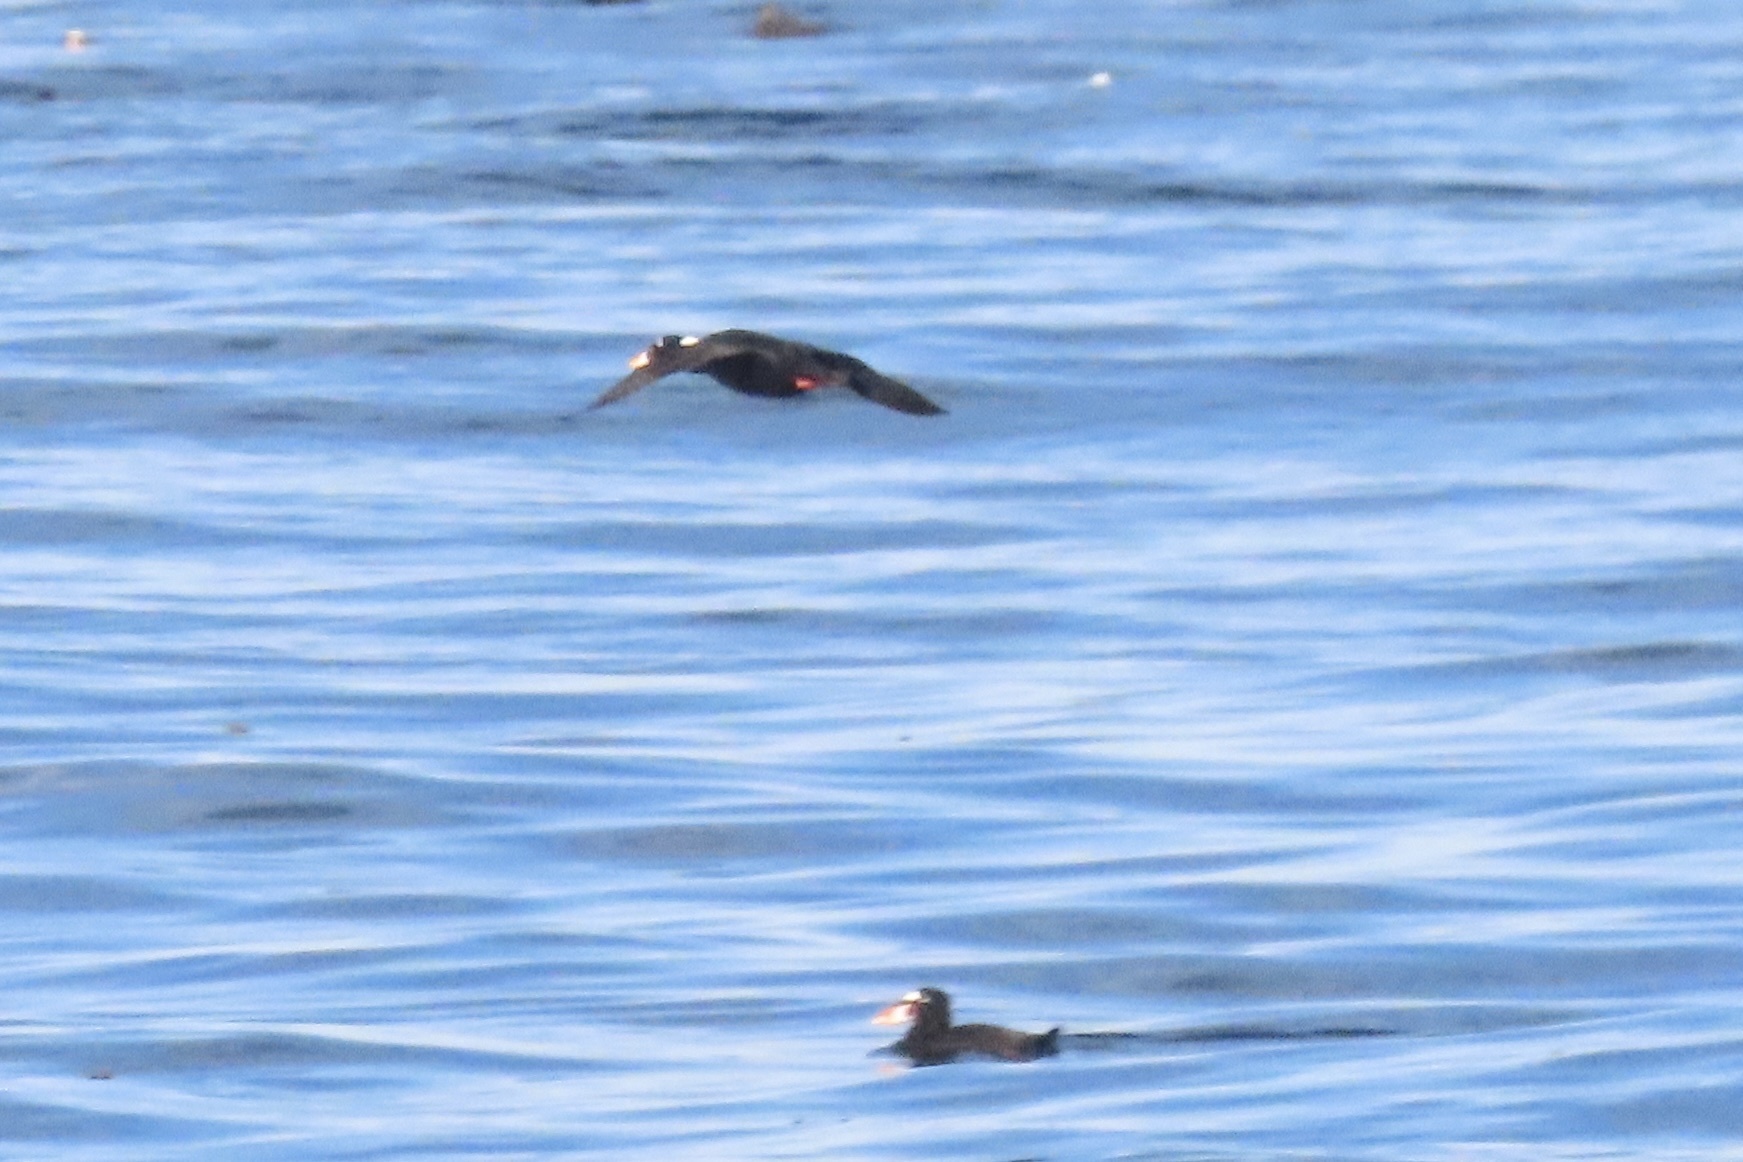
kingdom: Animalia
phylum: Chordata
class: Aves
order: Anseriformes
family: Anatidae
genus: Melanitta
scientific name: Melanitta perspicillata
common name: Surf scoter
